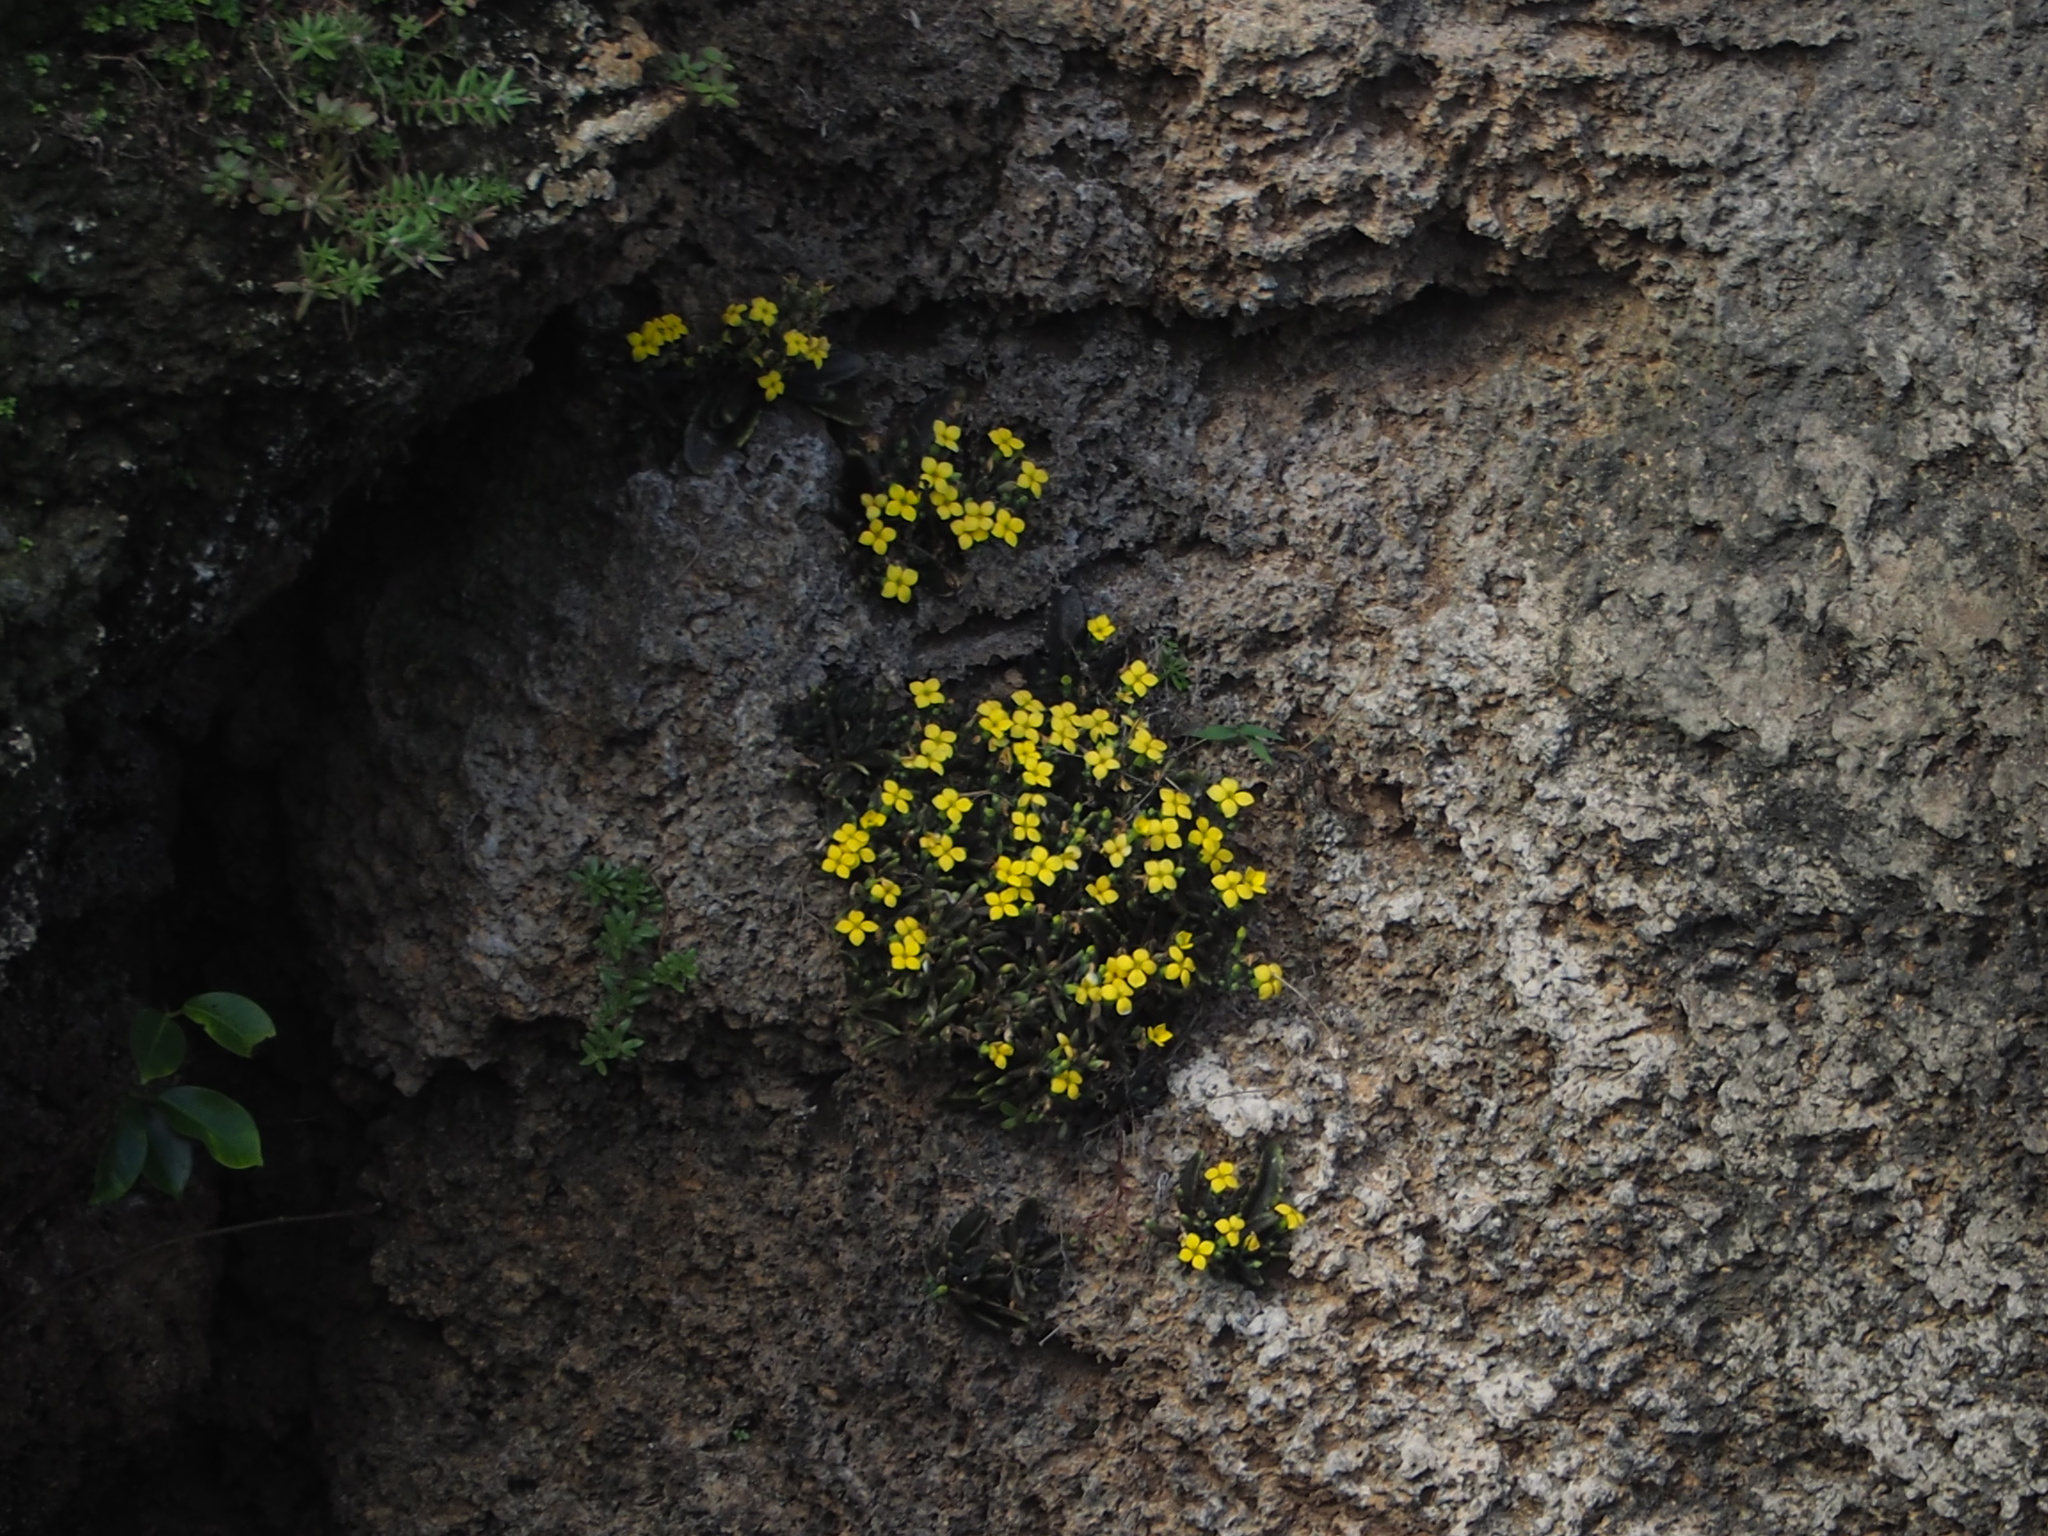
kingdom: Plantae
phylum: Tracheophyta
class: Magnoliopsida
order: Saxifragales
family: Crassulaceae
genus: Kalanchoe
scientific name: Kalanchoe integra
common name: Neverdie
